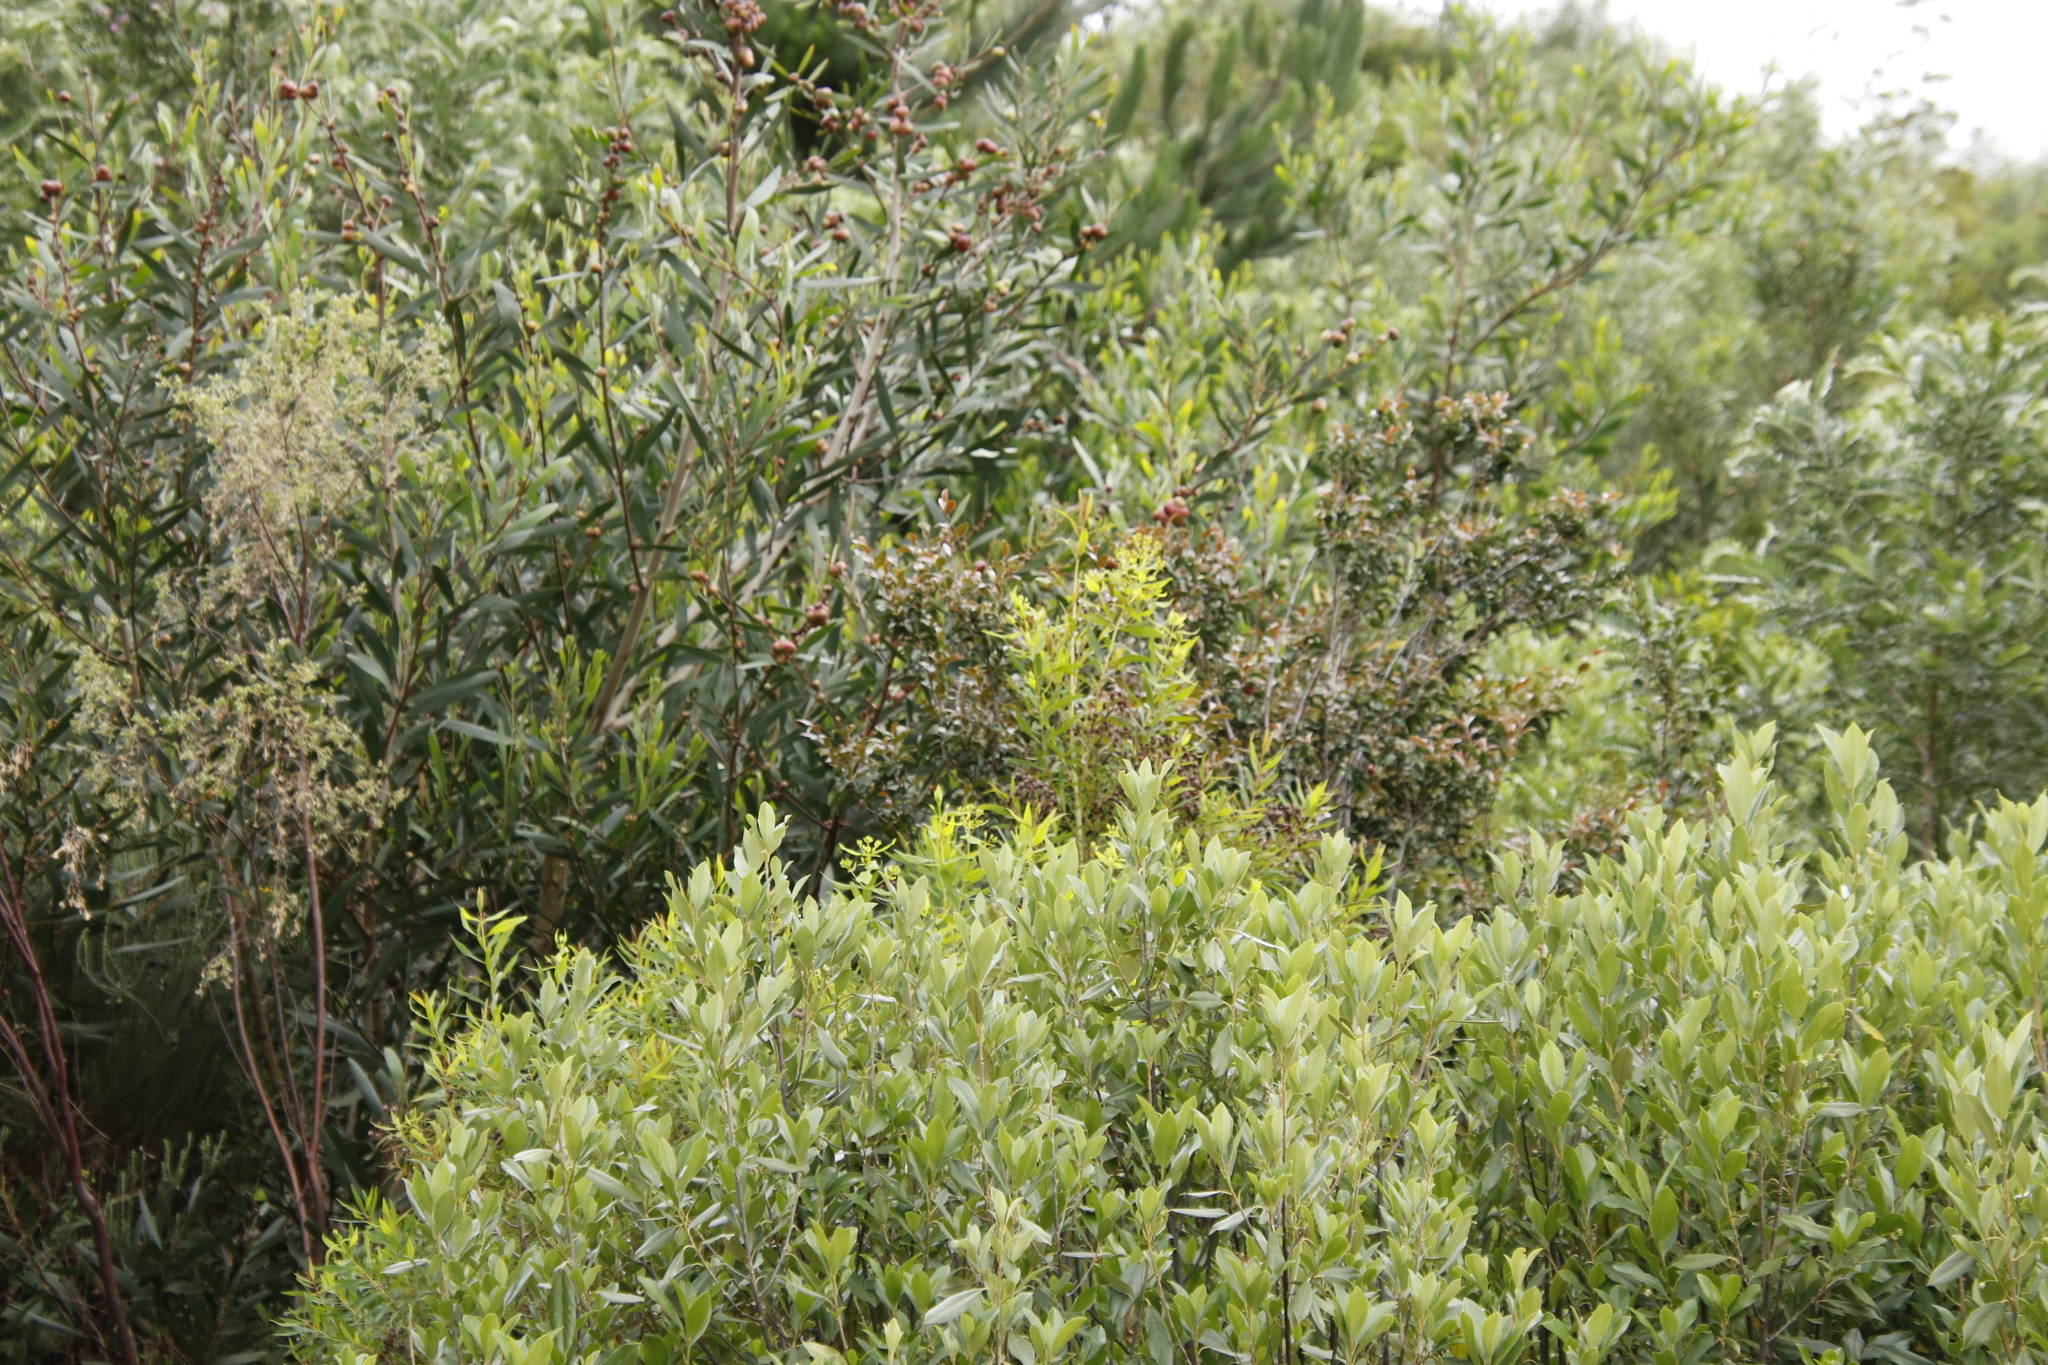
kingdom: Plantae
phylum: Tracheophyta
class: Magnoliopsida
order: Fabales
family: Fabaceae
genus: Acacia
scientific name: Acacia longifolia
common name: Sydney golden wattle
